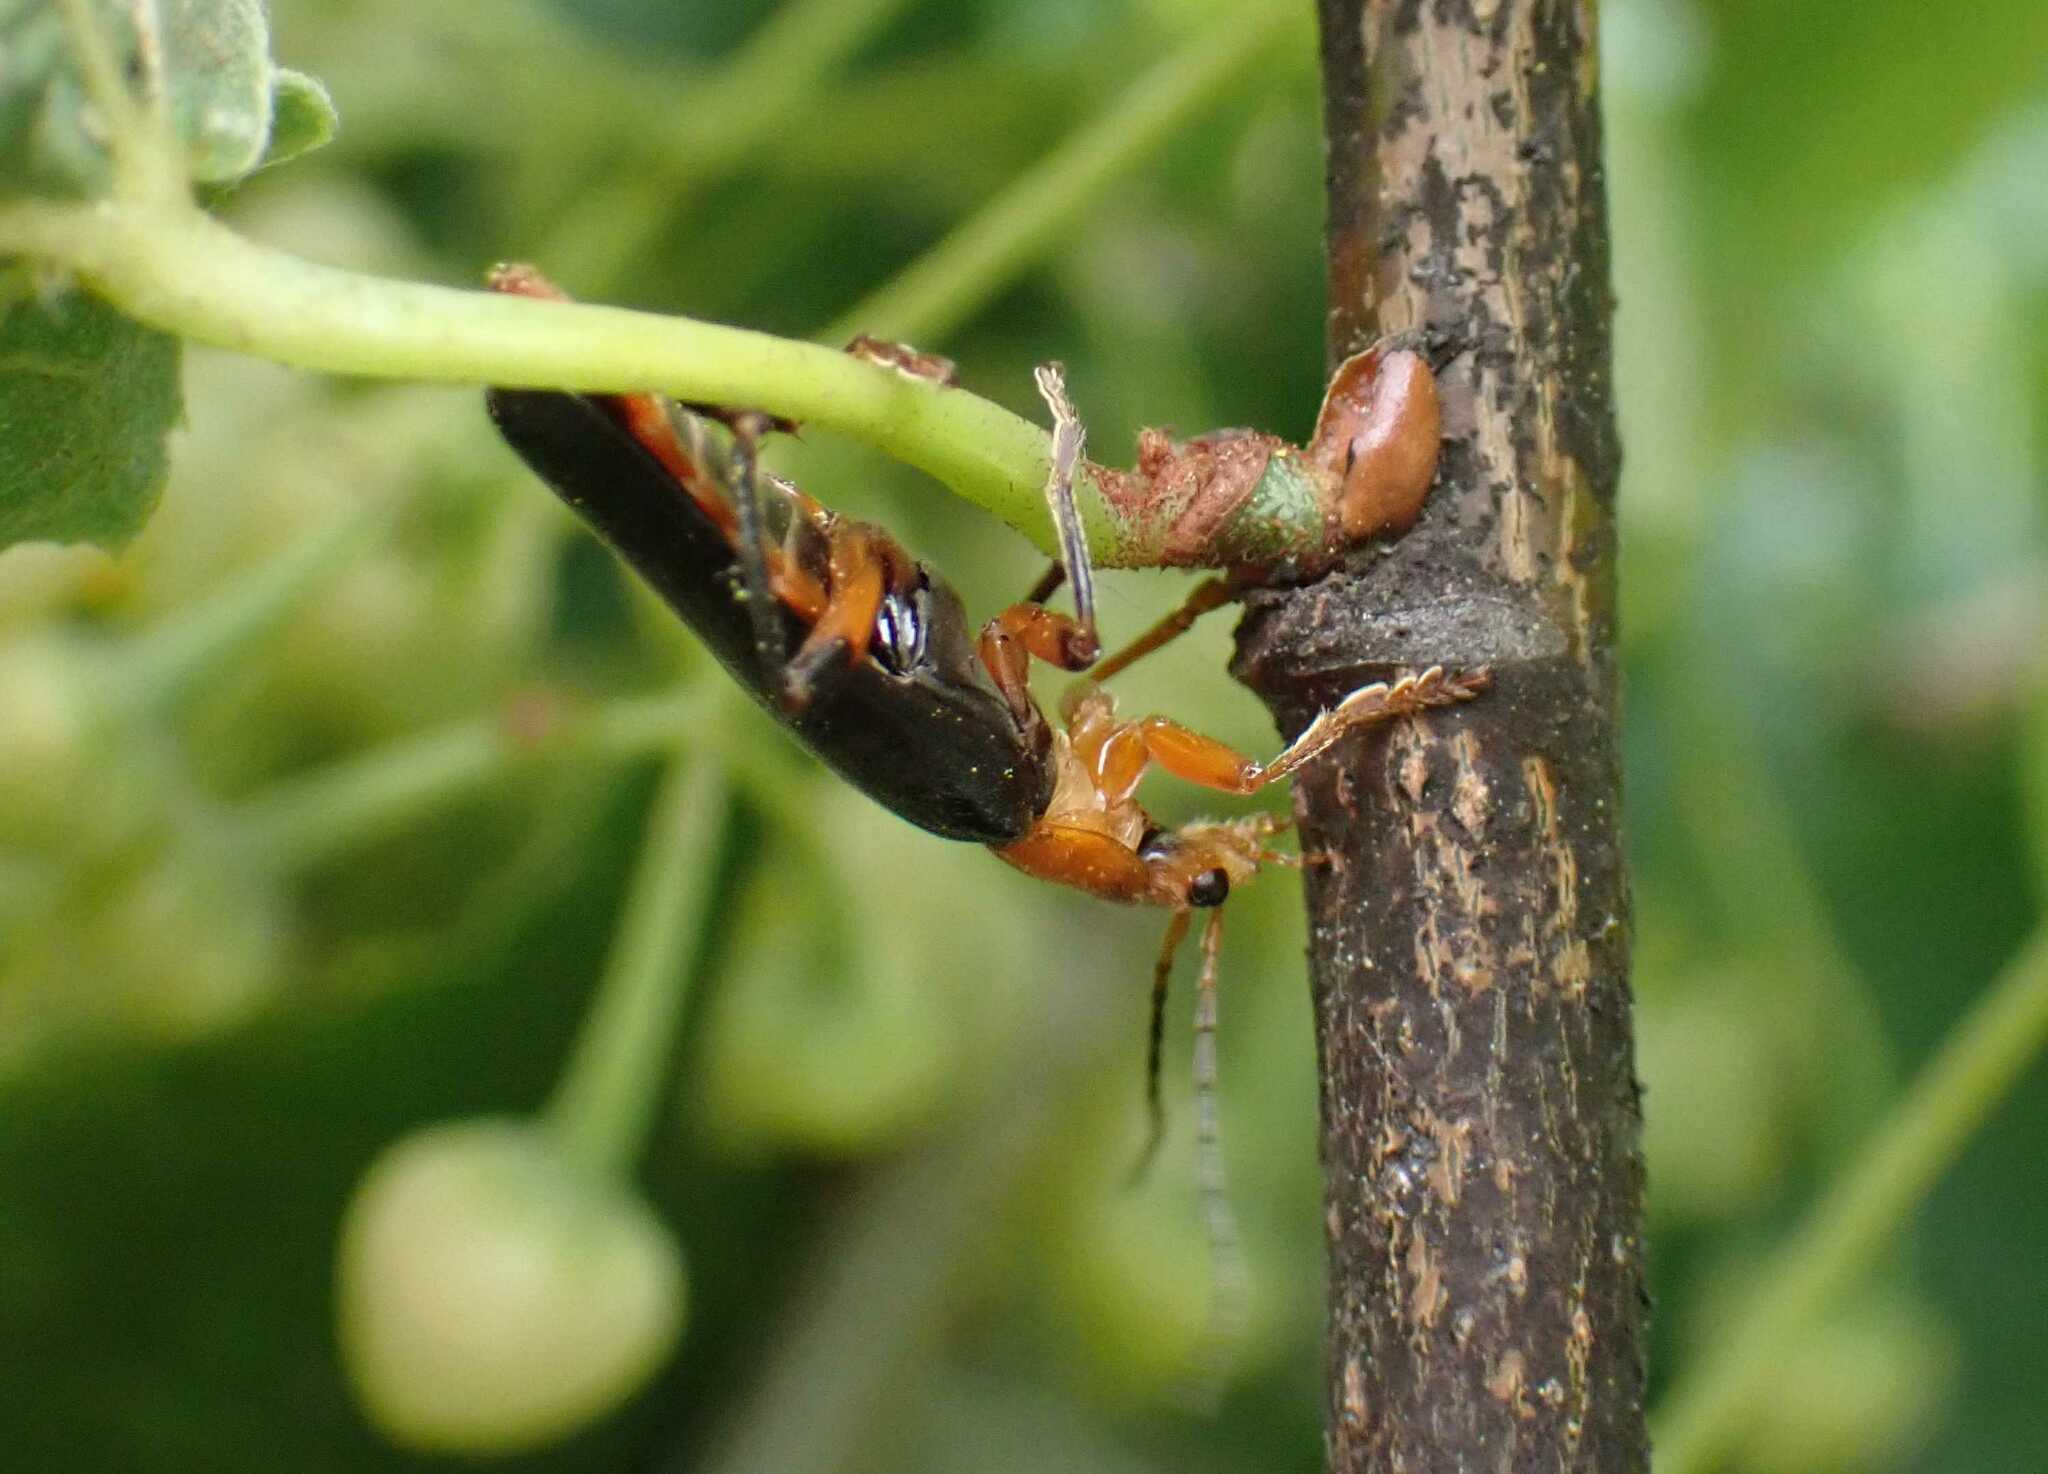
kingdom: Animalia
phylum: Arthropoda
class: Insecta
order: Coleoptera
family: Cantharidae
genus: Cantharis
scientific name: Cantharis livida
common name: Livid soldier beetle
